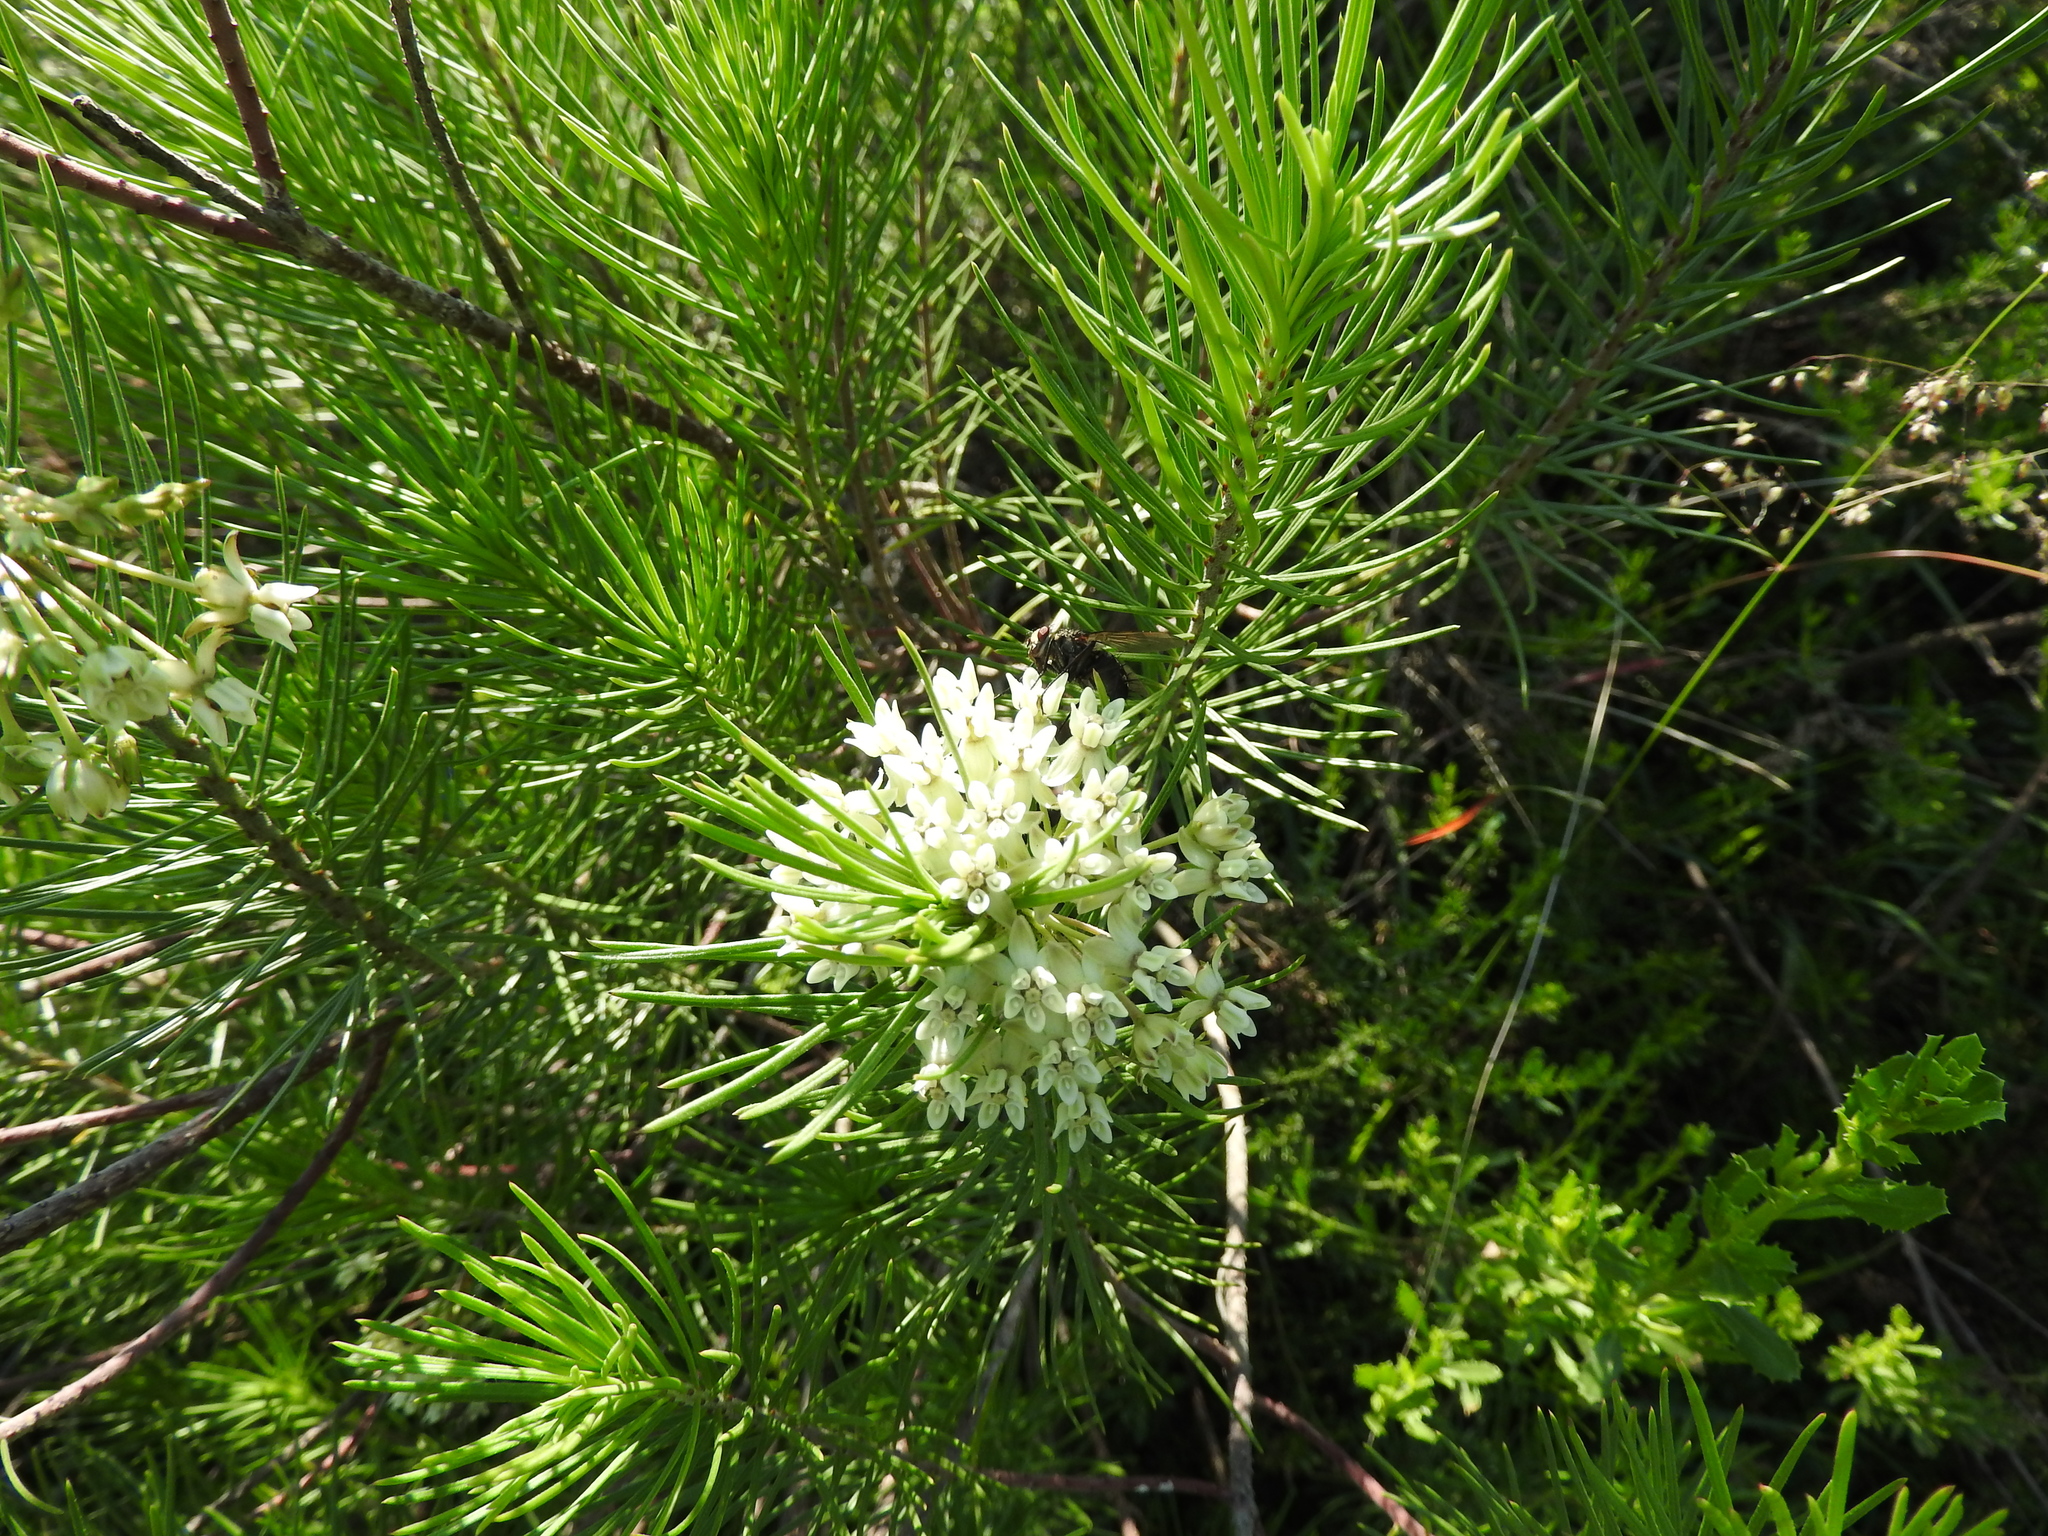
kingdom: Plantae
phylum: Tracheophyta
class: Magnoliopsida
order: Gentianales
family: Apocynaceae
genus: Asclepias
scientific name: Asclepias linaria
